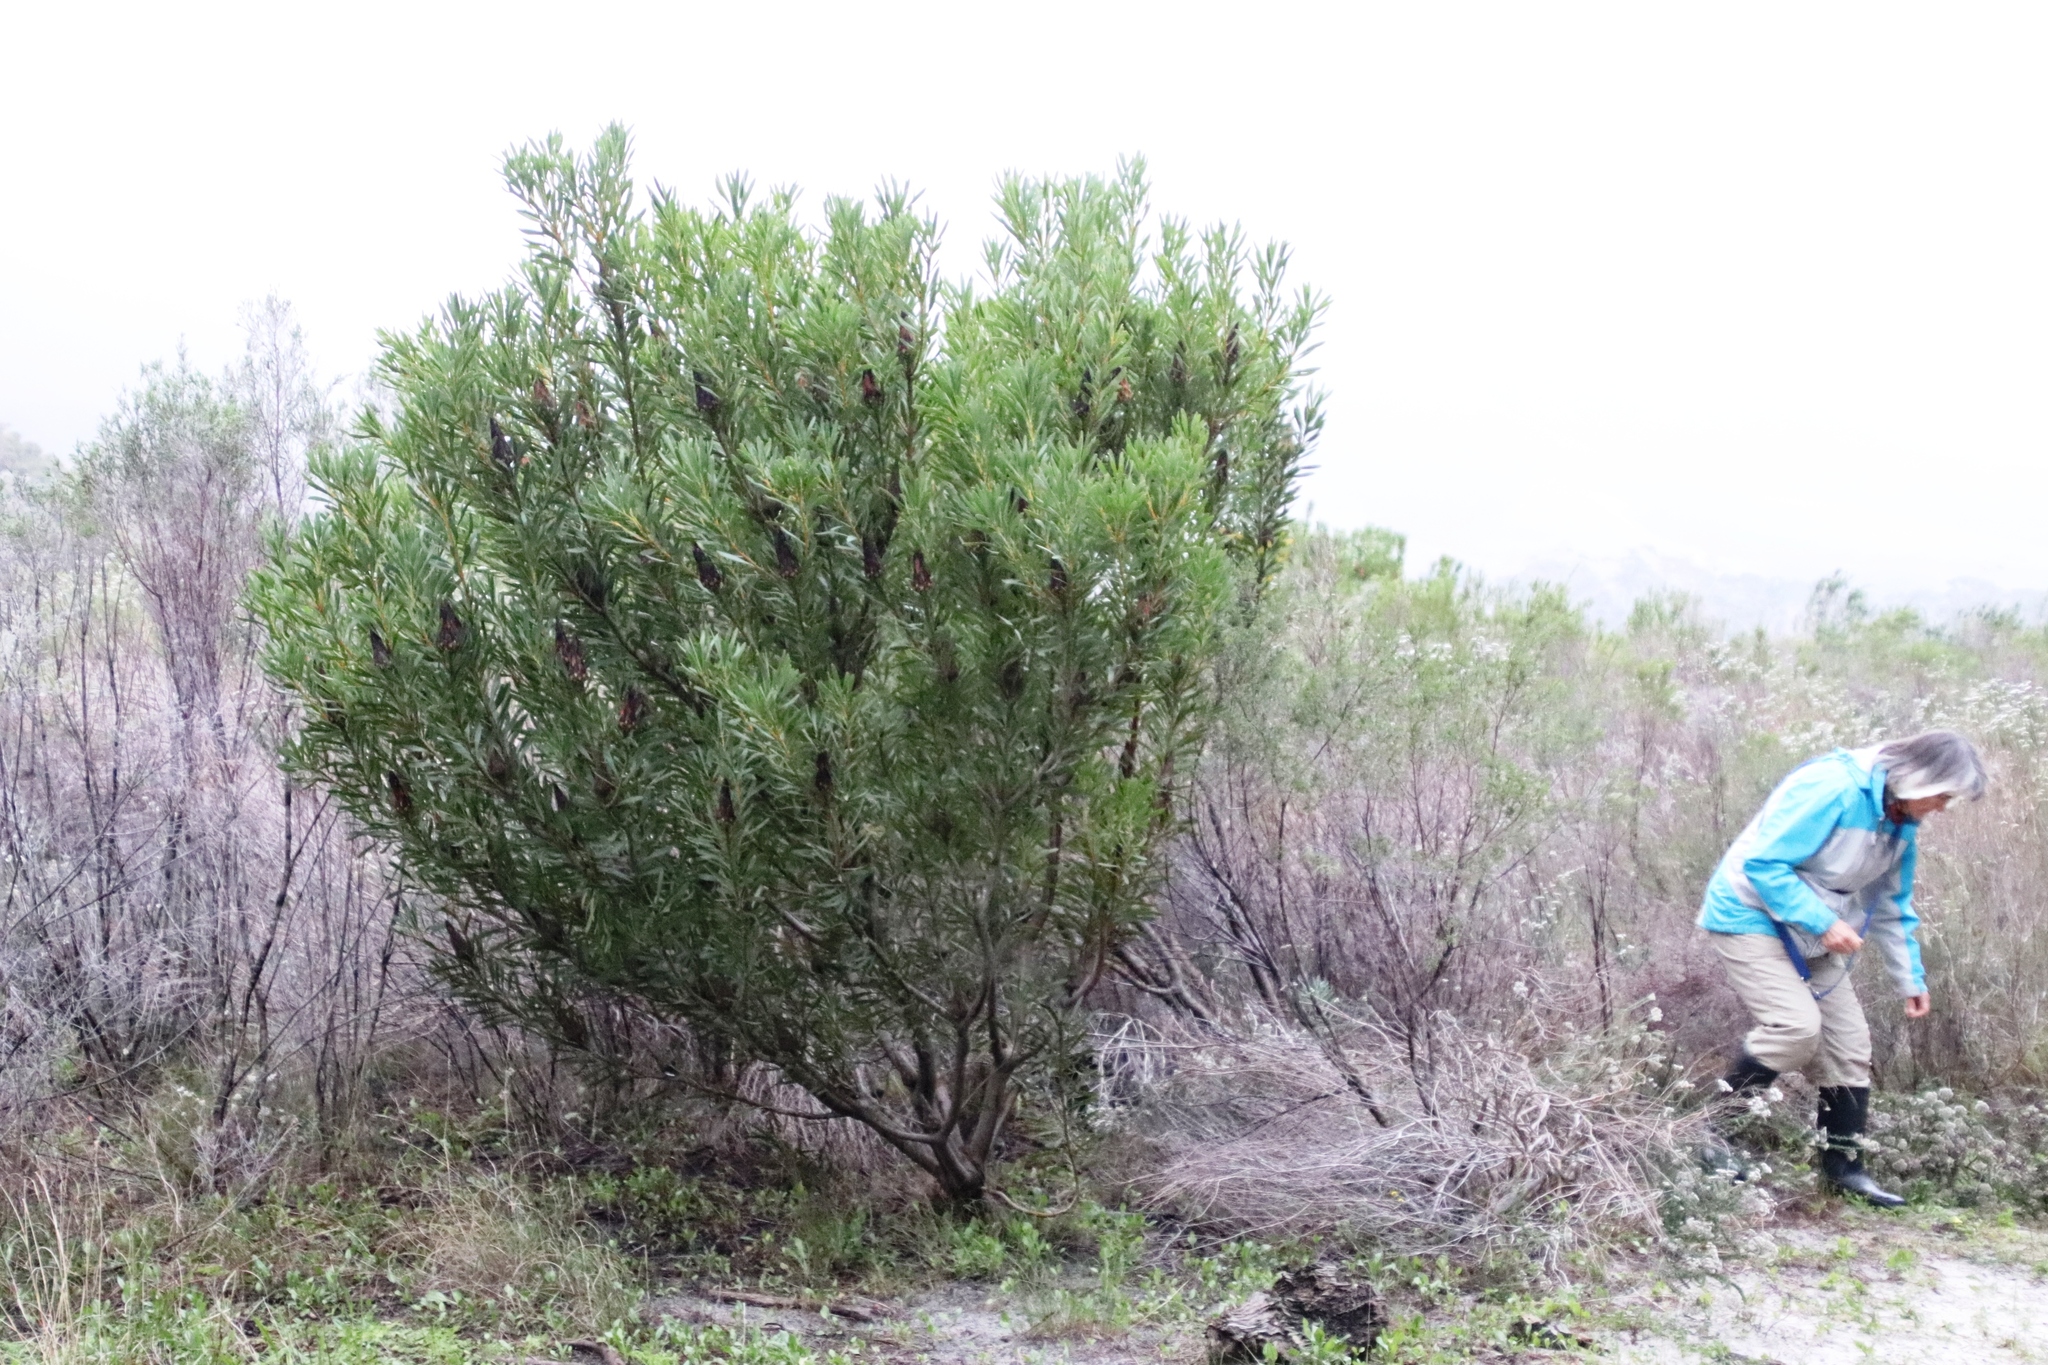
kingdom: Plantae
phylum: Tracheophyta
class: Magnoliopsida
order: Proteales
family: Proteaceae
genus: Protea
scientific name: Protea repens
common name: Sugarbush
